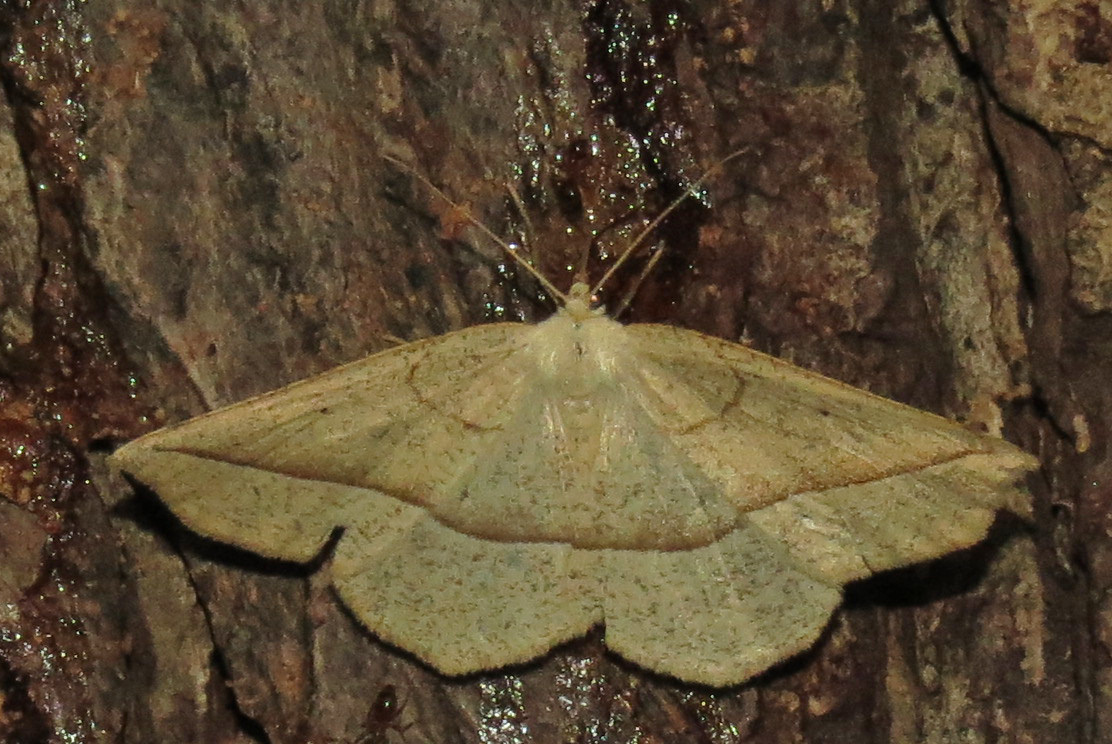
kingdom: Animalia
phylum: Arthropoda
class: Insecta
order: Lepidoptera
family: Geometridae
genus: Eusarca
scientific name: Eusarca confusaria
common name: Confused eusarca
